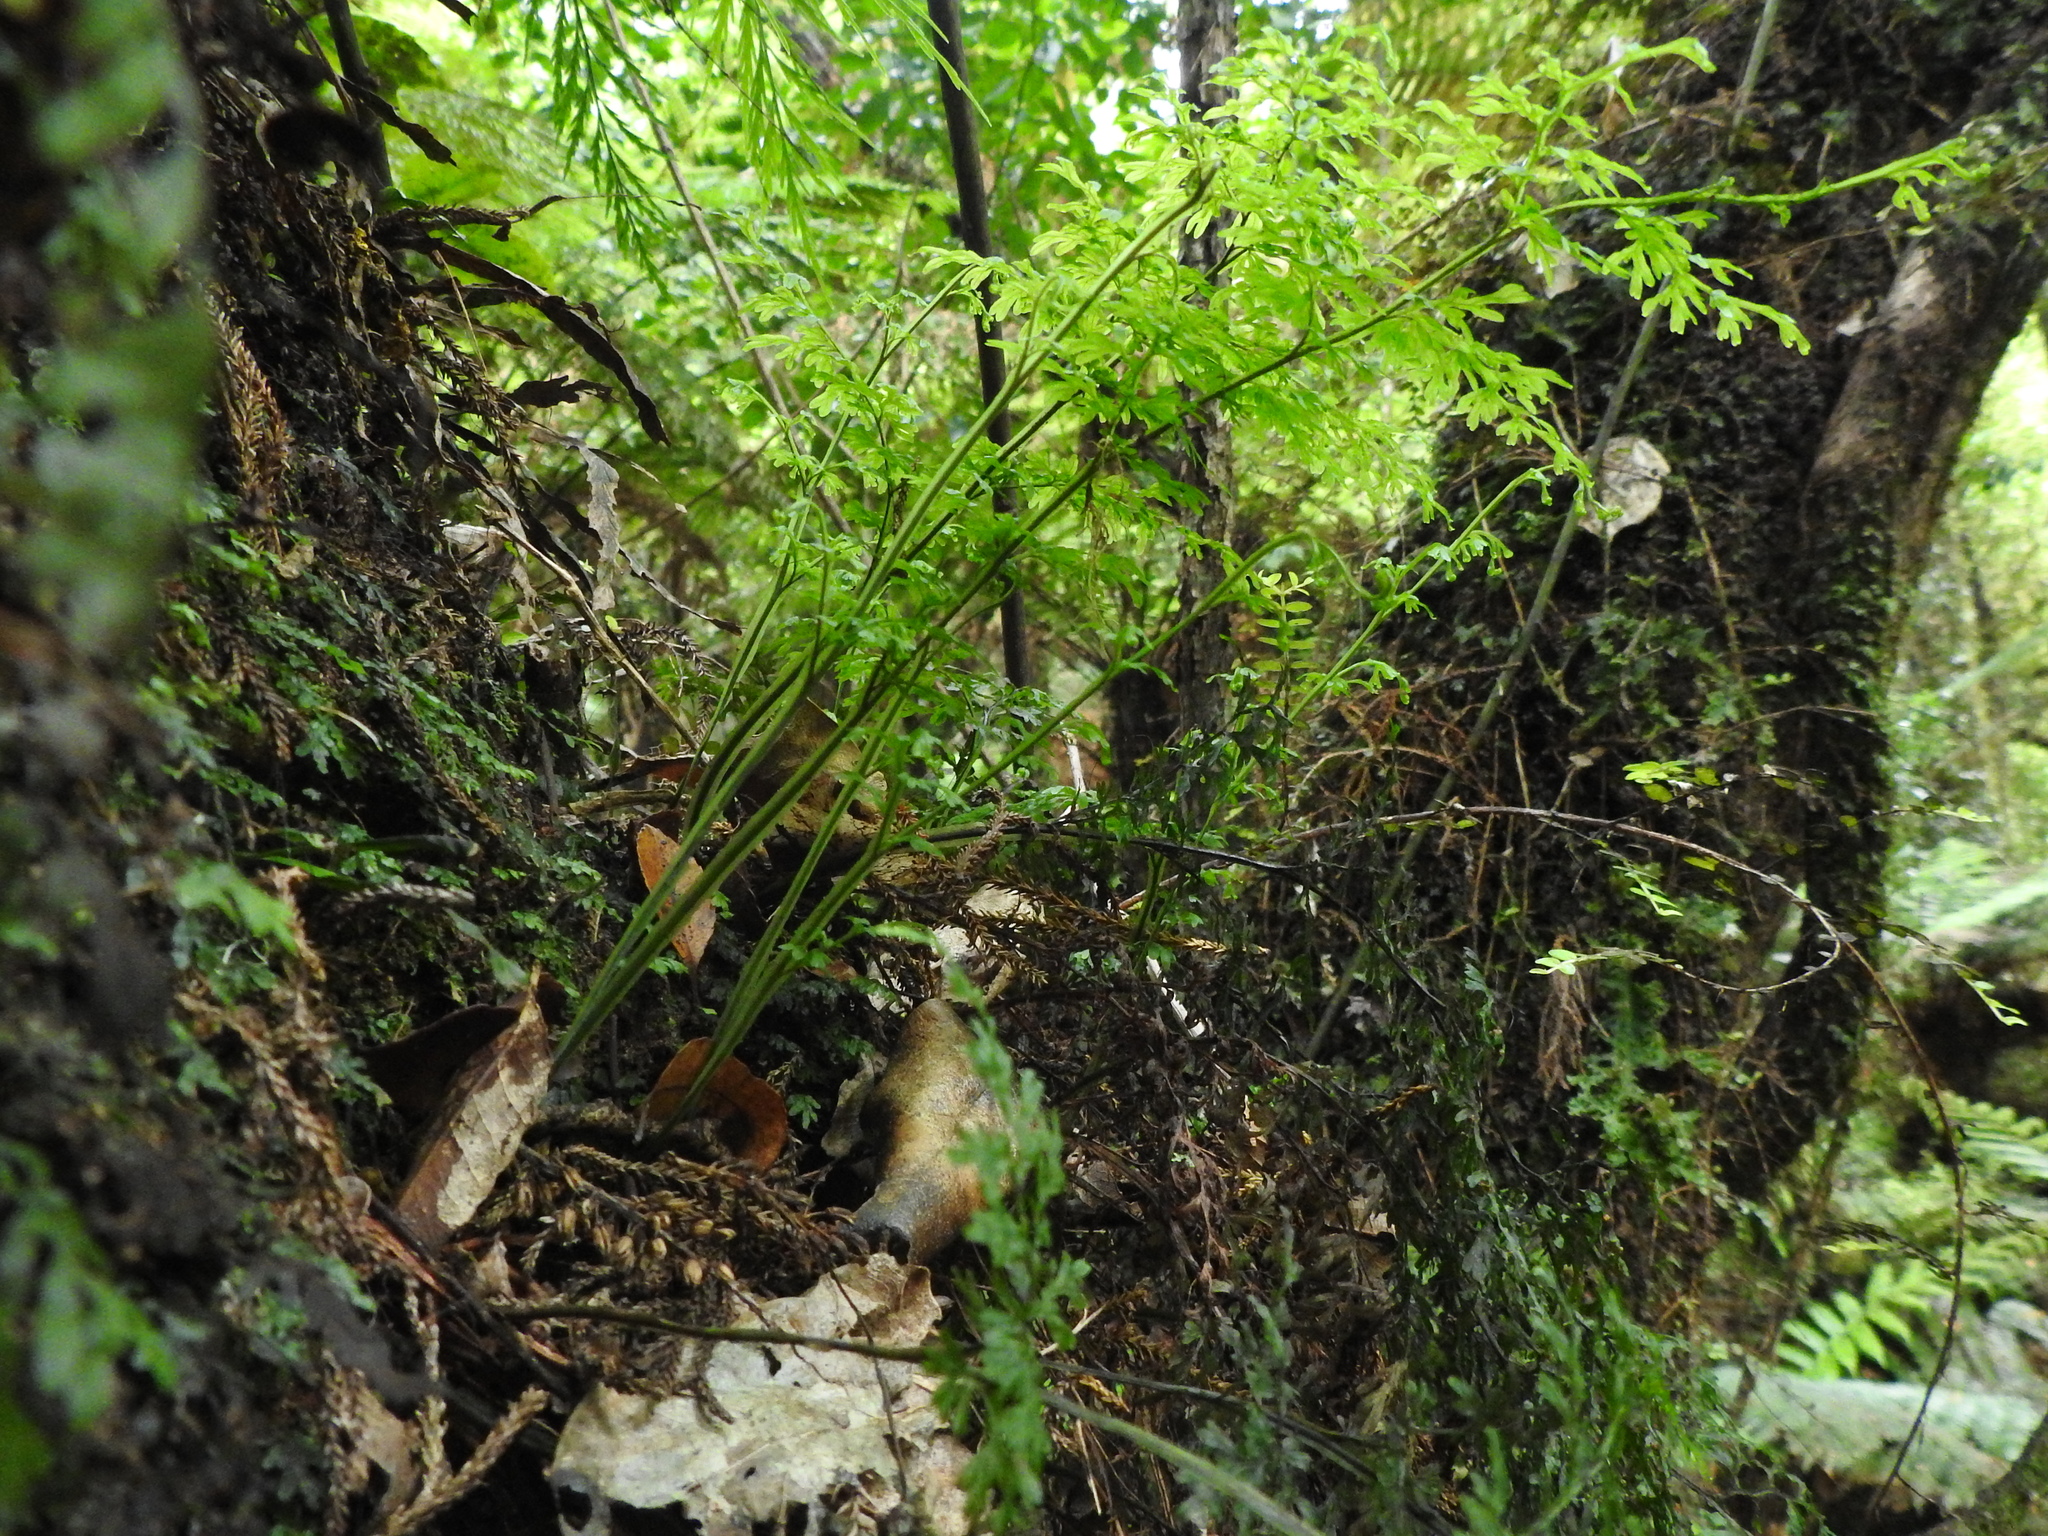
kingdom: Plantae
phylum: Tracheophyta
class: Polypodiopsida
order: Hymenophyllales
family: Hymenophyllaceae
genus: Hymenophyllum
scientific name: Hymenophyllum pulcherrimum
